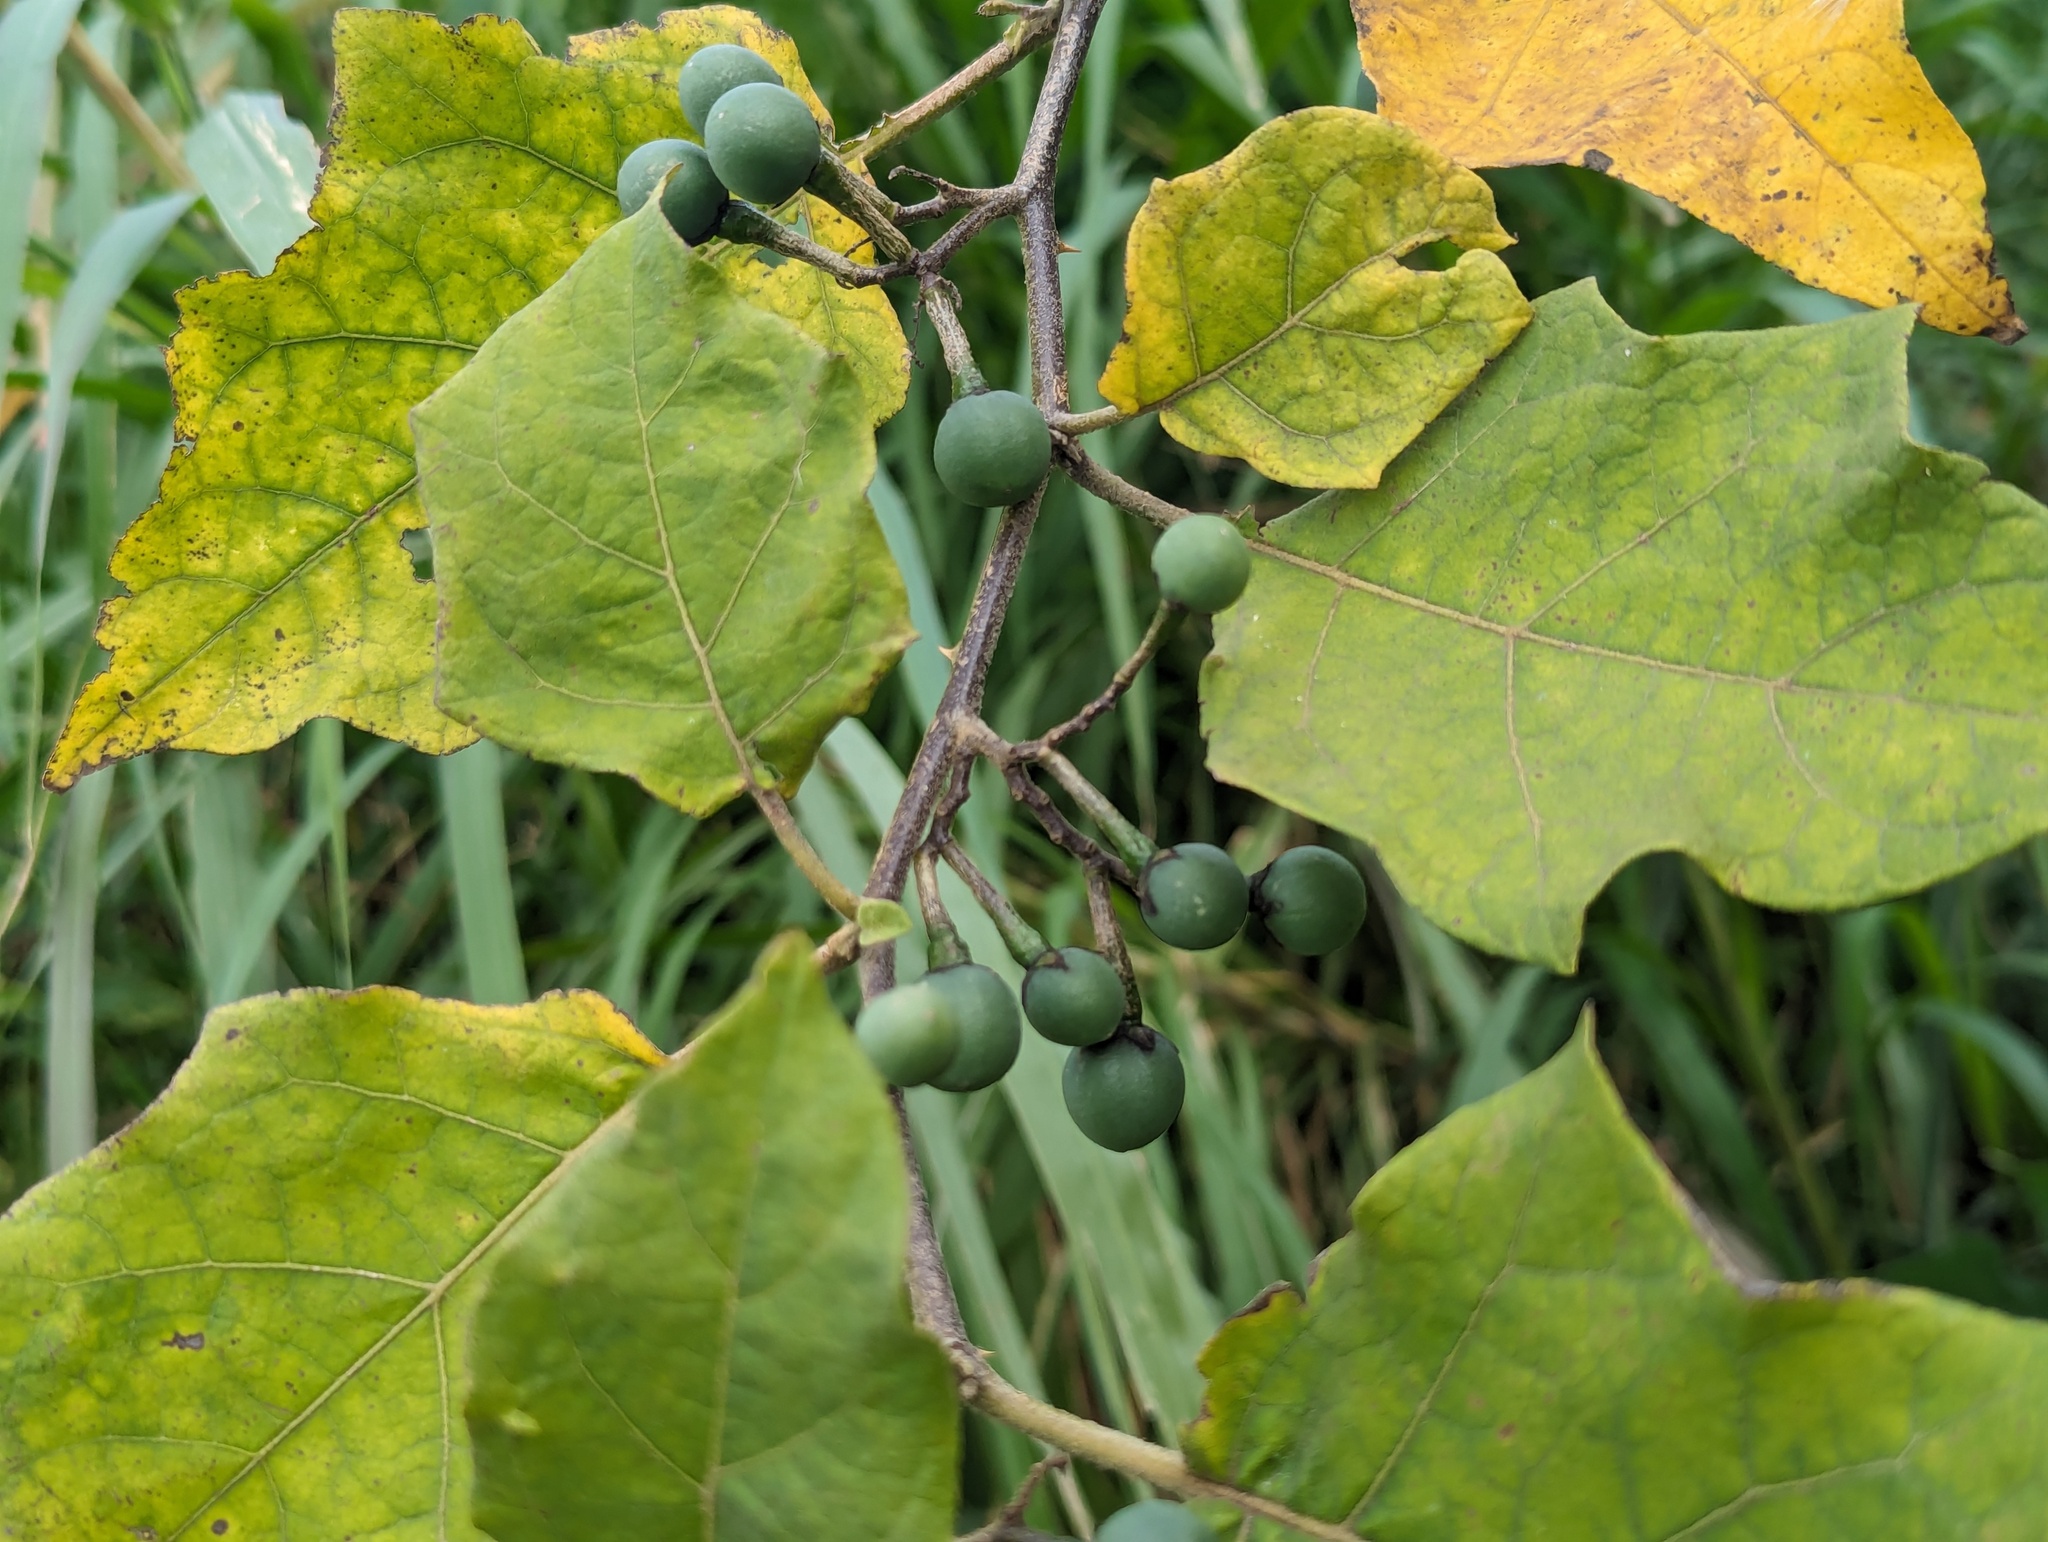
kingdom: Plantae
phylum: Tracheophyta
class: Magnoliopsida
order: Solanales
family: Solanaceae
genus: Solanum
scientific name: Solanum torvum
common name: Turkey berry
